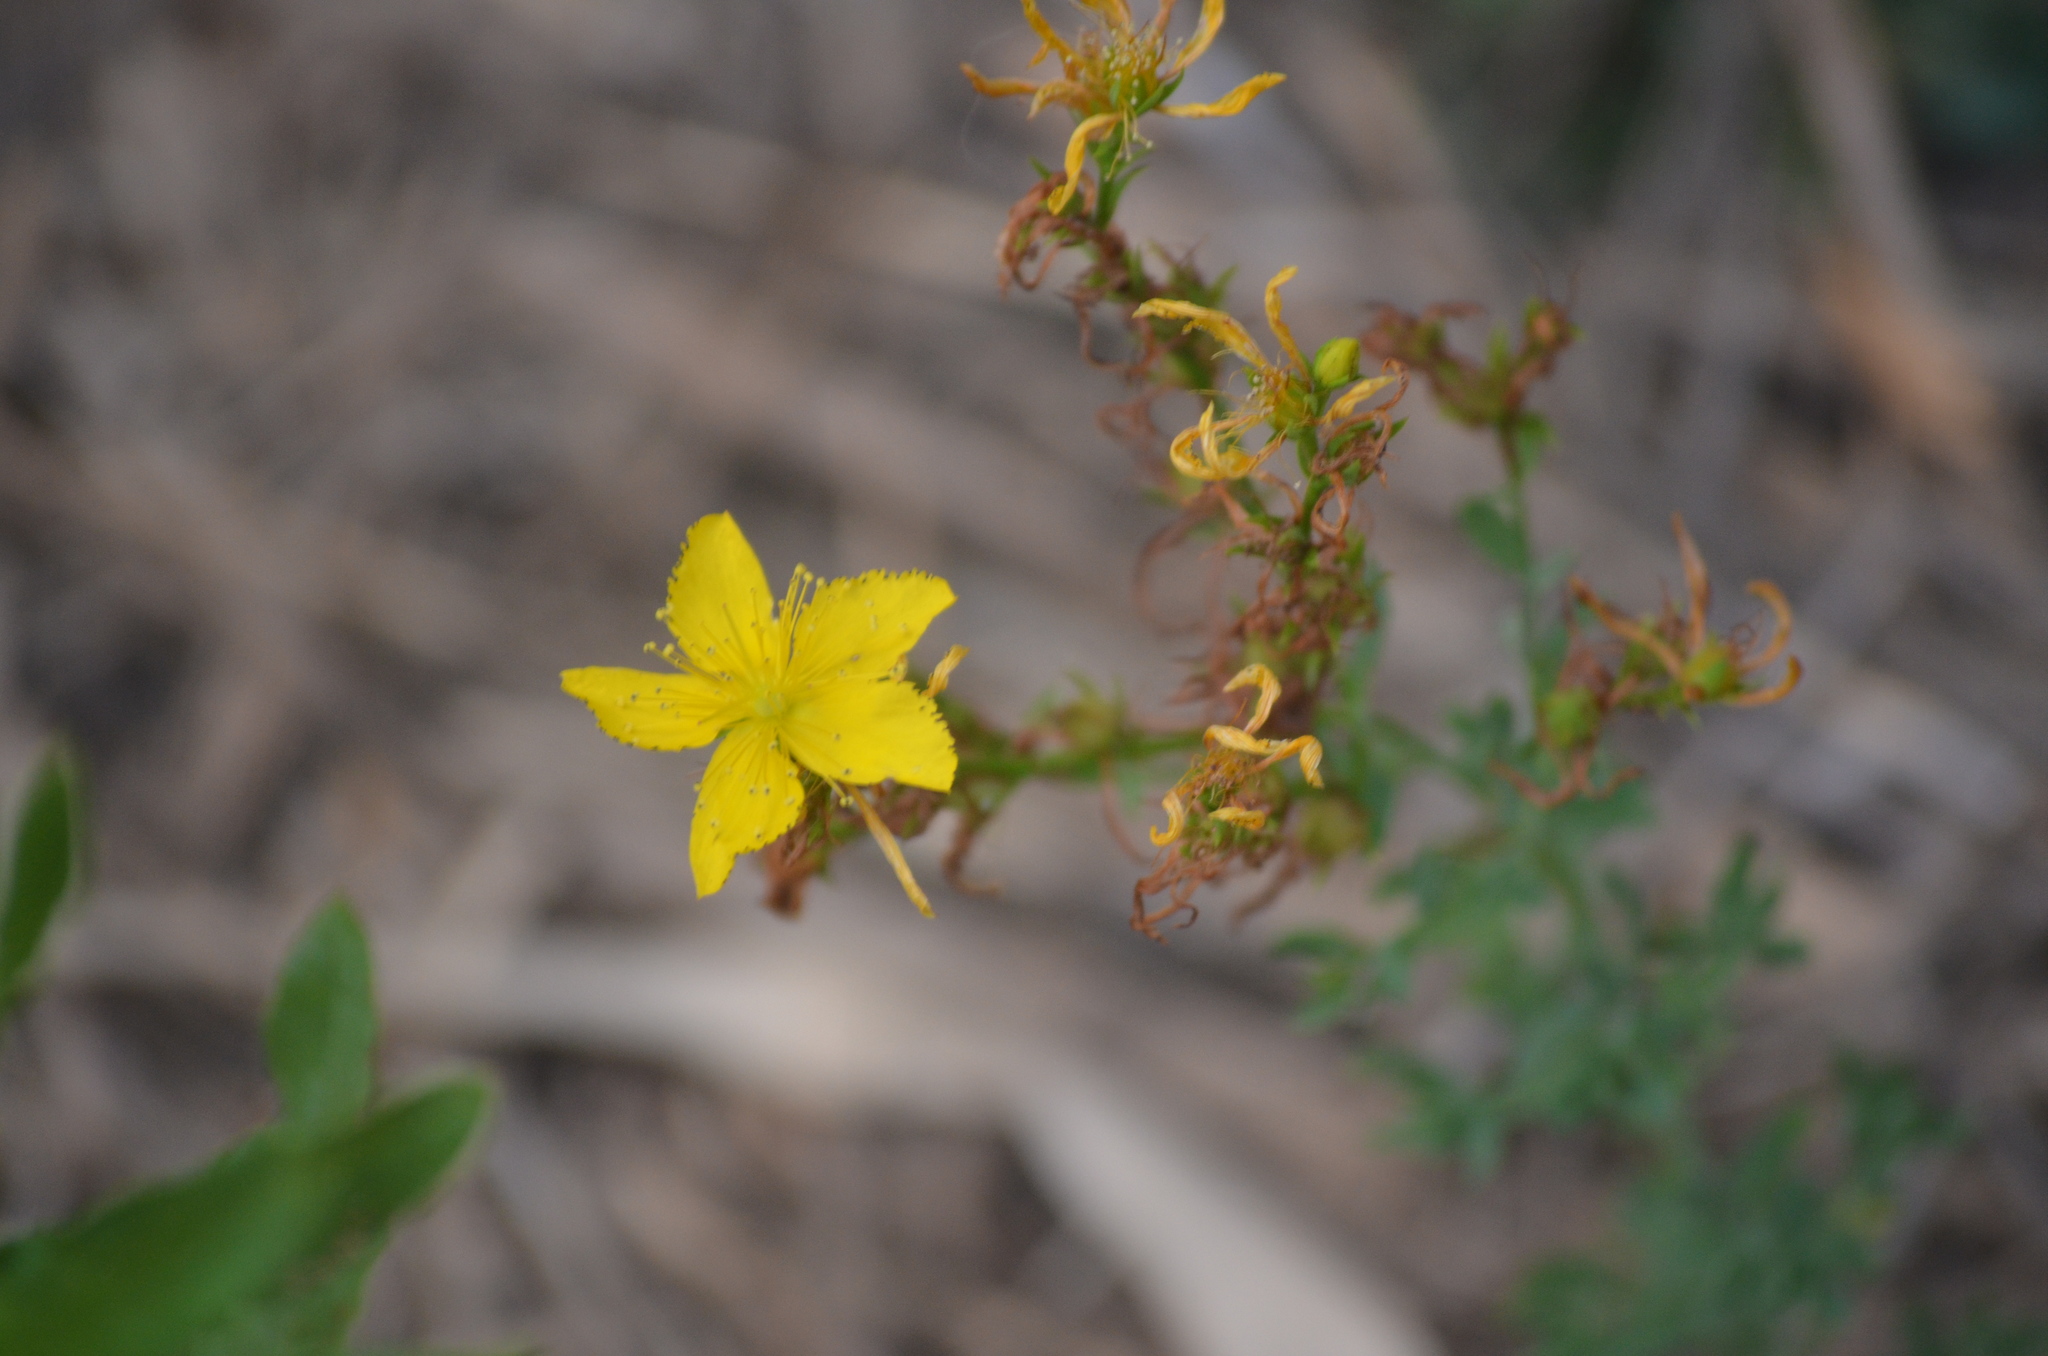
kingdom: Plantae
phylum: Tracheophyta
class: Magnoliopsida
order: Malpighiales
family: Hypericaceae
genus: Hypericum
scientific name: Hypericum perforatum
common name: Common st. johnswort
